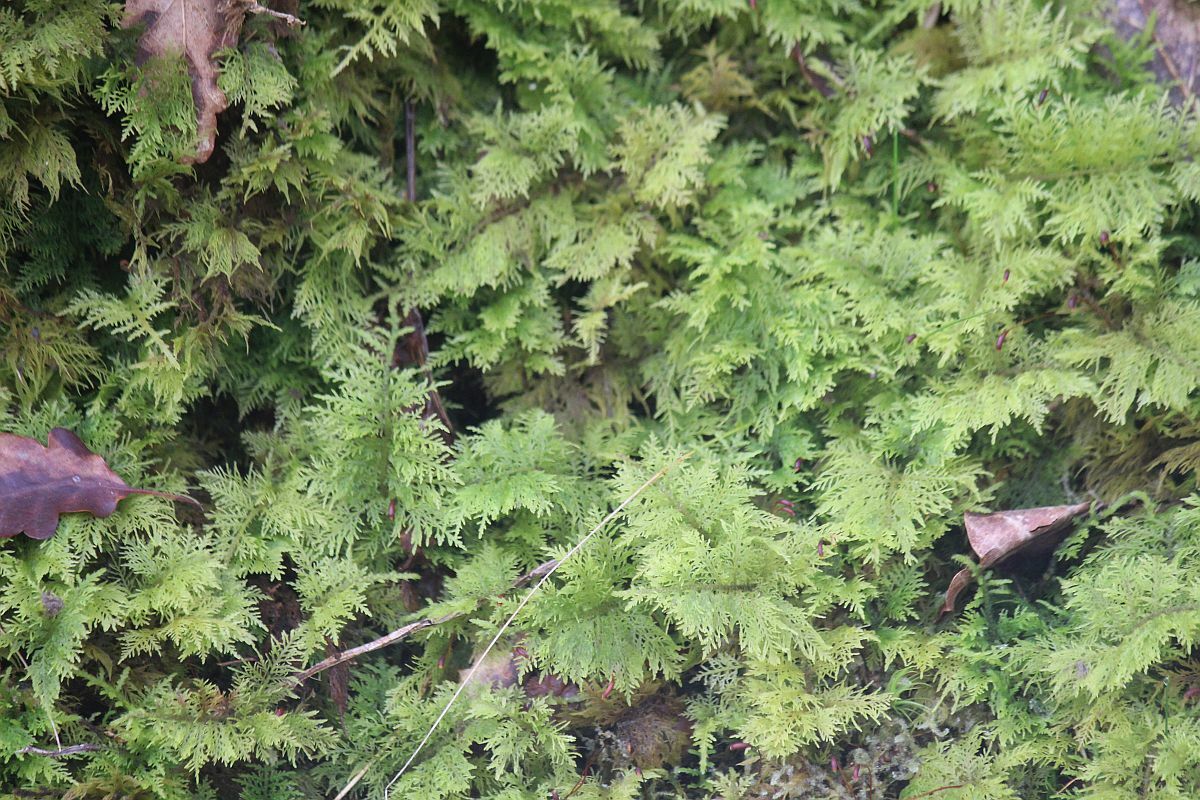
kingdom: Plantae
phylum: Bryophyta
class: Bryopsida
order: Hypnales
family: Thuidiaceae
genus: Thuidium
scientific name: Thuidium tamariscinum
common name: Common tamarisk-moss
